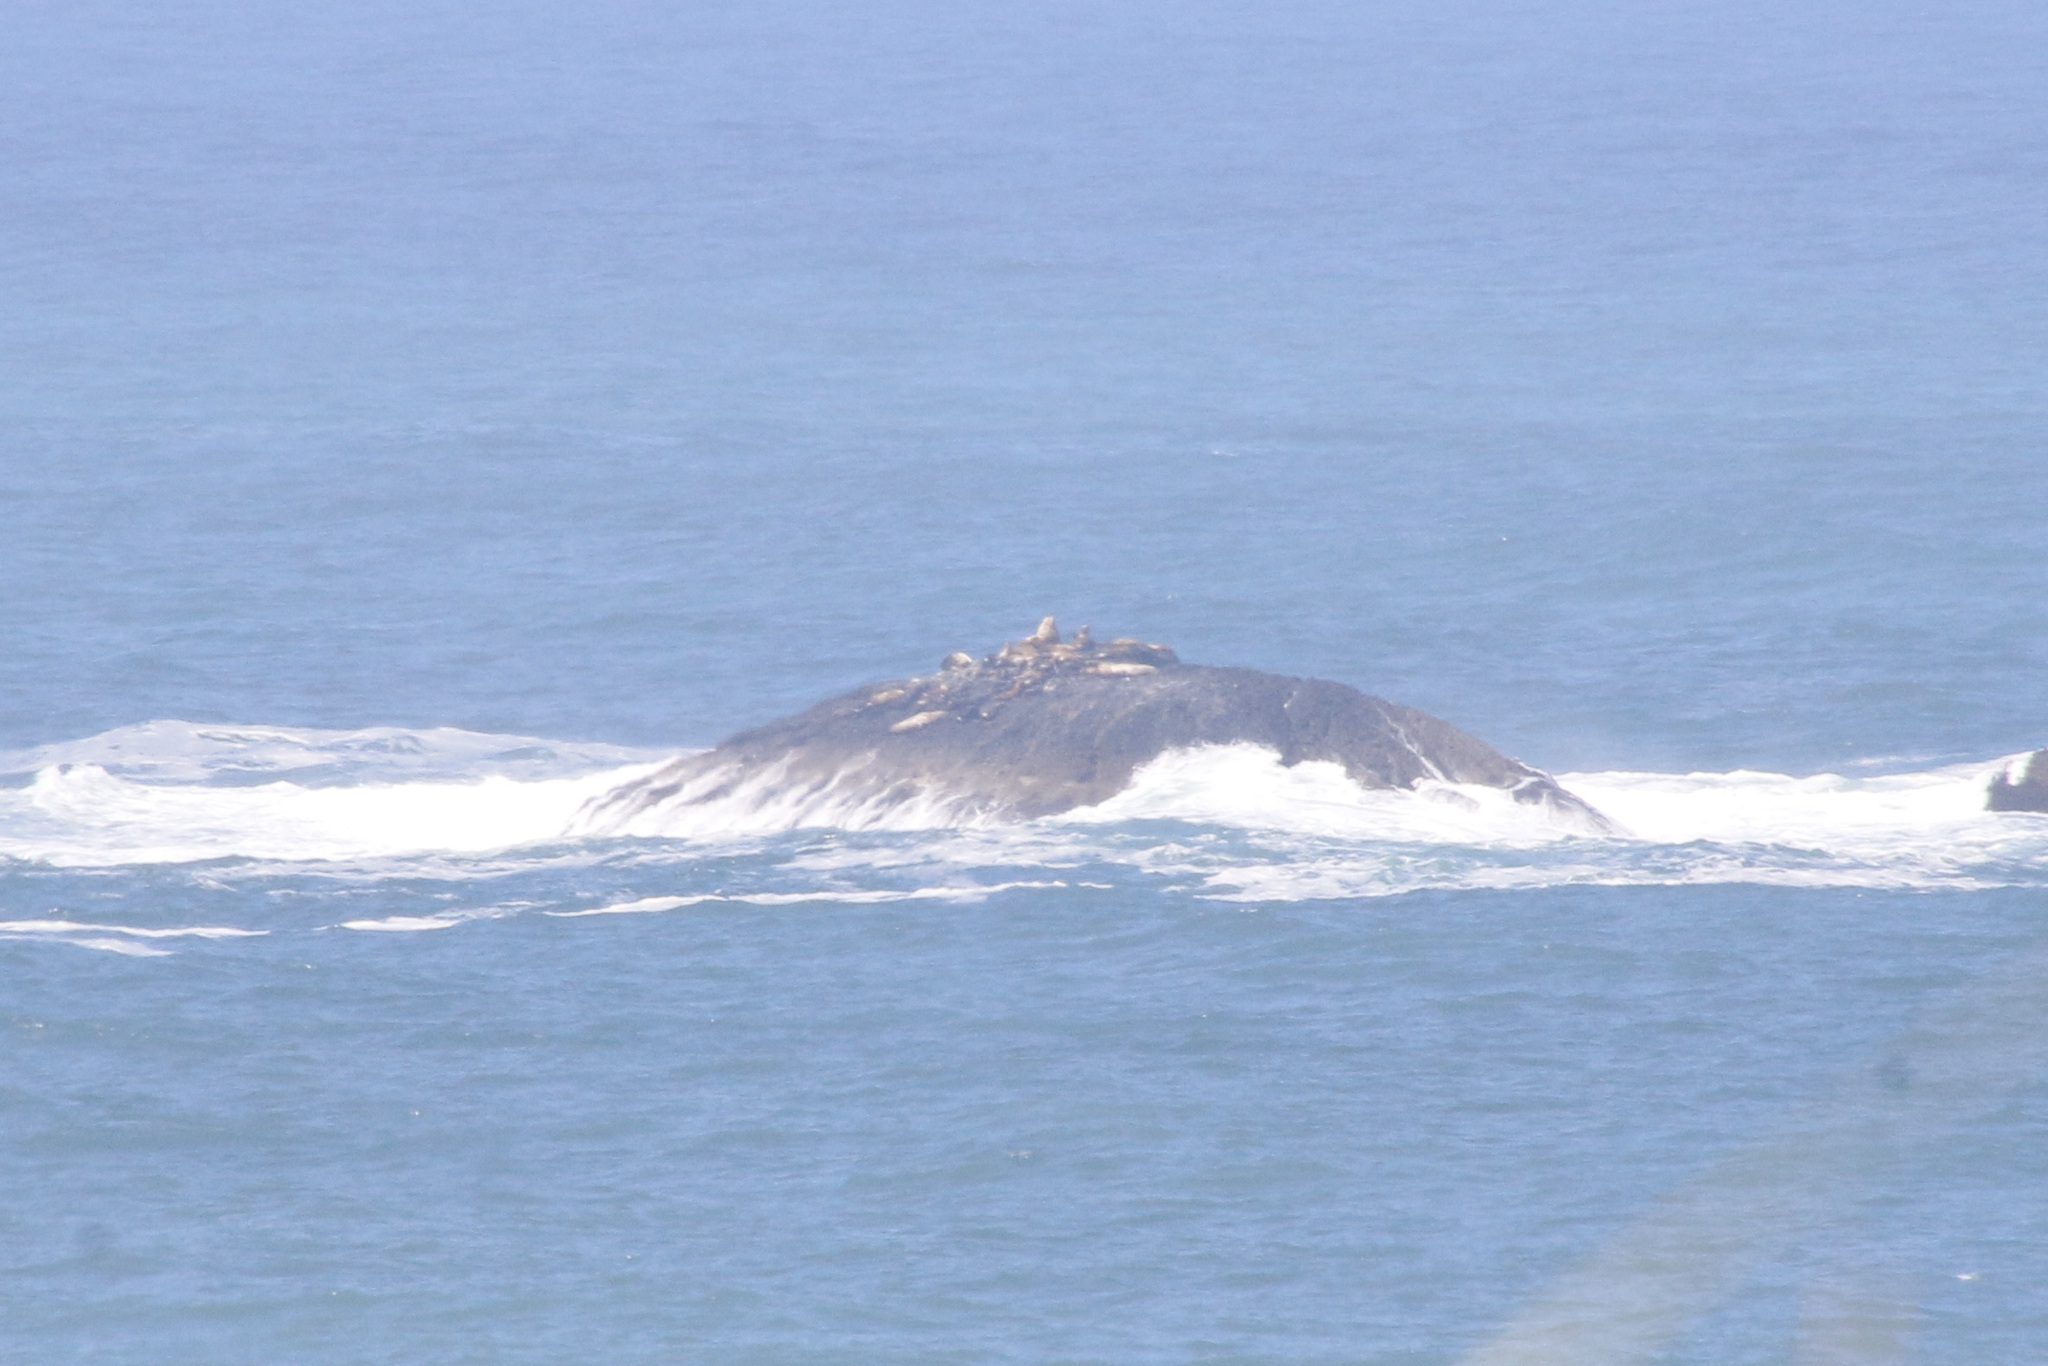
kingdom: Animalia
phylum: Chordata
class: Mammalia
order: Carnivora
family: Otariidae
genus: Zalophus
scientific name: Zalophus californianus
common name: California sea lion
